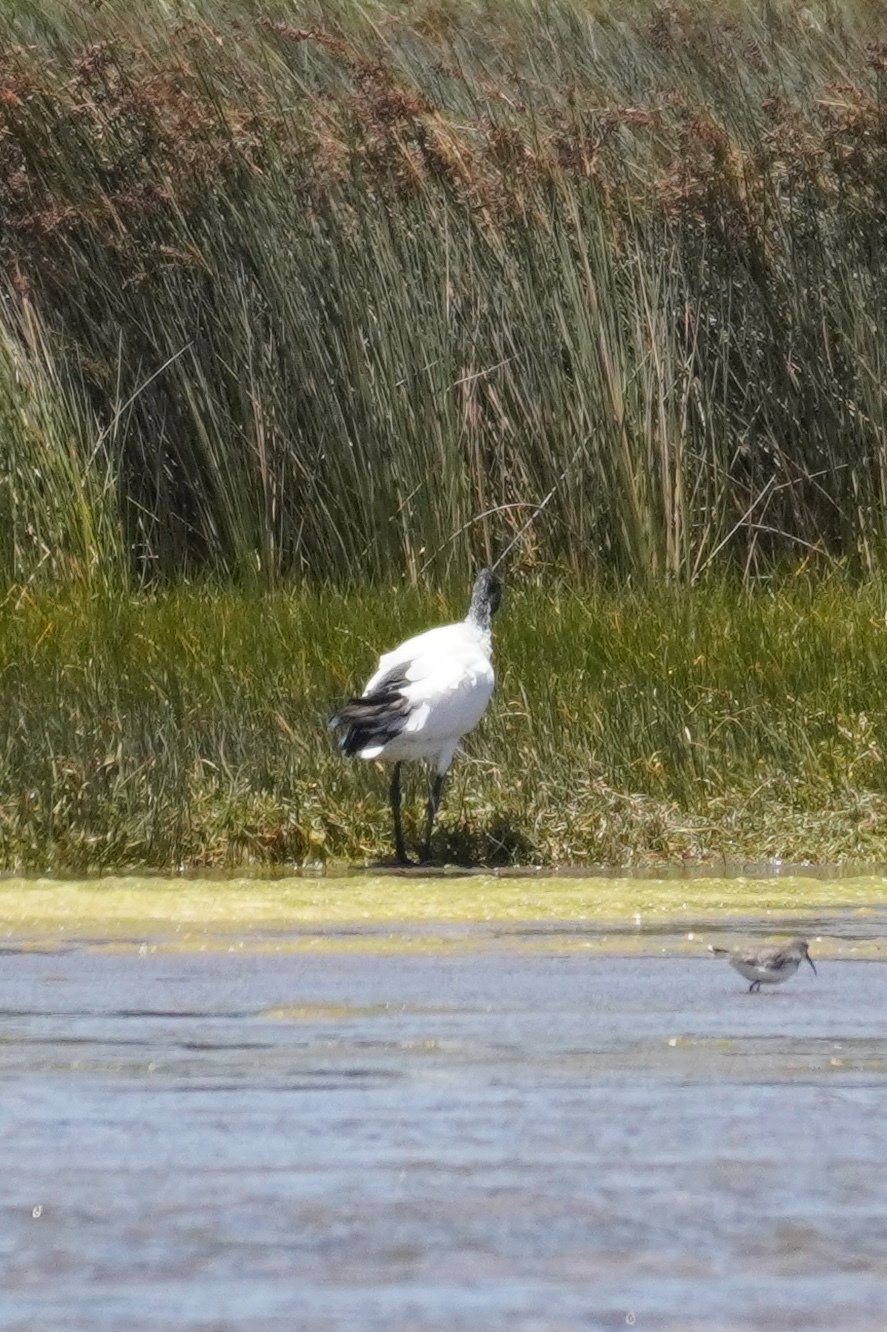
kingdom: Animalia
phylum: Chordata
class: Aves
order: Pelecaniformes
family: Threskiornithidae
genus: Threskiornis
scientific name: Threskiornis aethiopicus
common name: Sacred ibis
